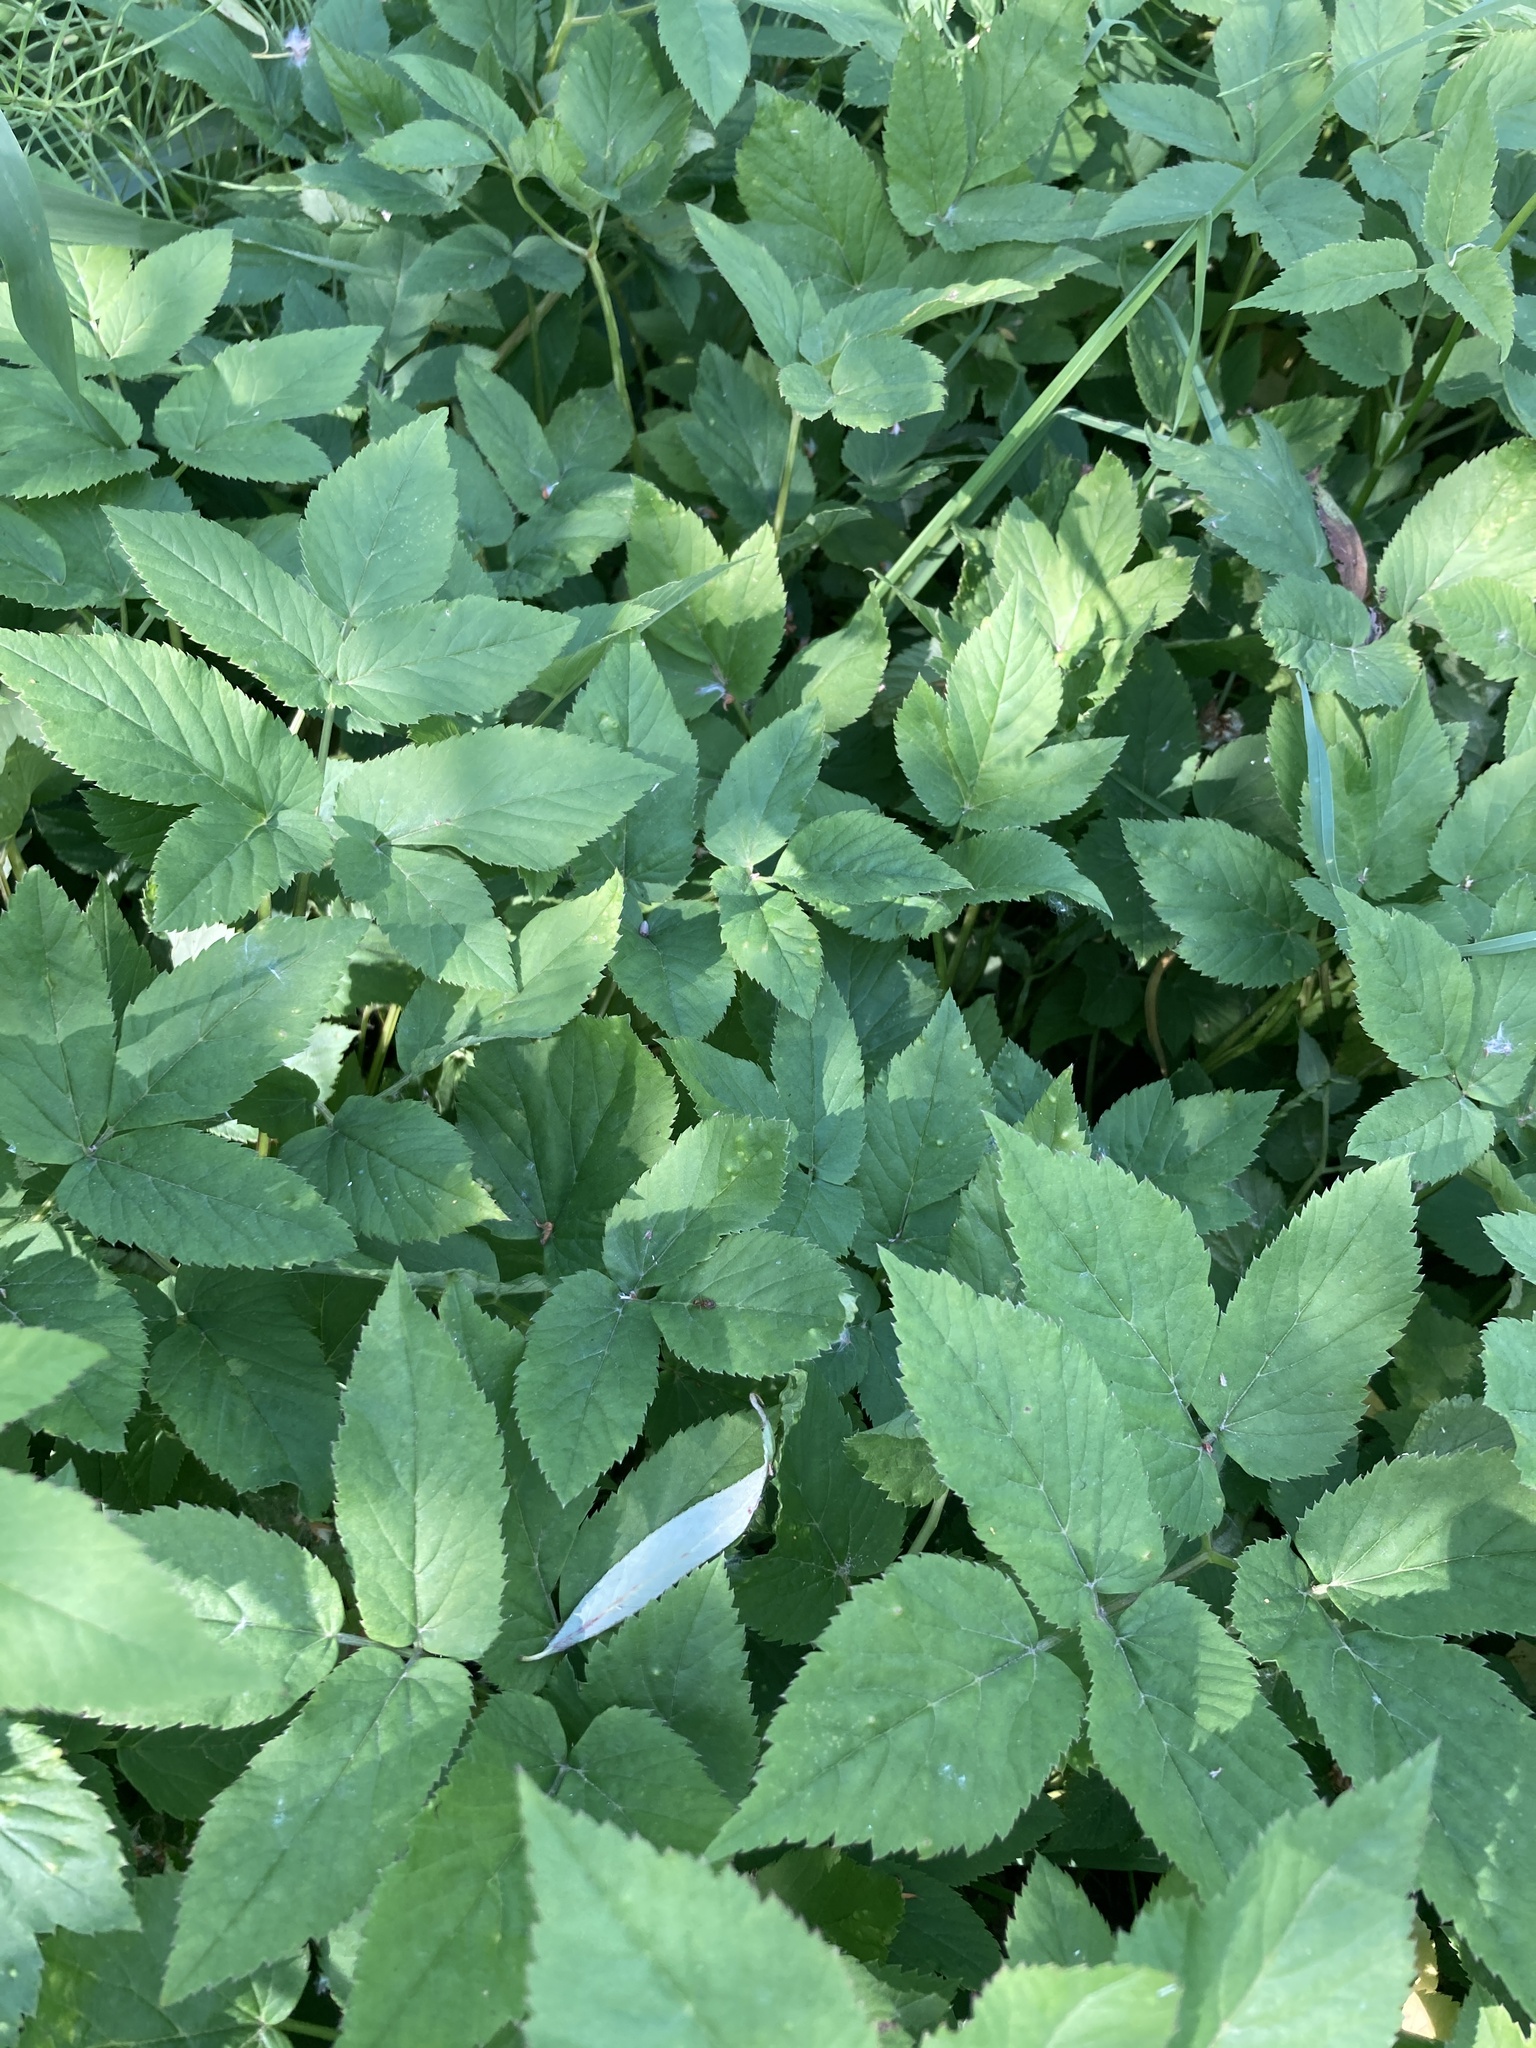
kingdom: Plantae
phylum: Tracheophyta
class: Magnoliopsida
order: Apiales
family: Apiaceae
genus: Aegopodium
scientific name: Aegopodium podagraria
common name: Ground-elder
